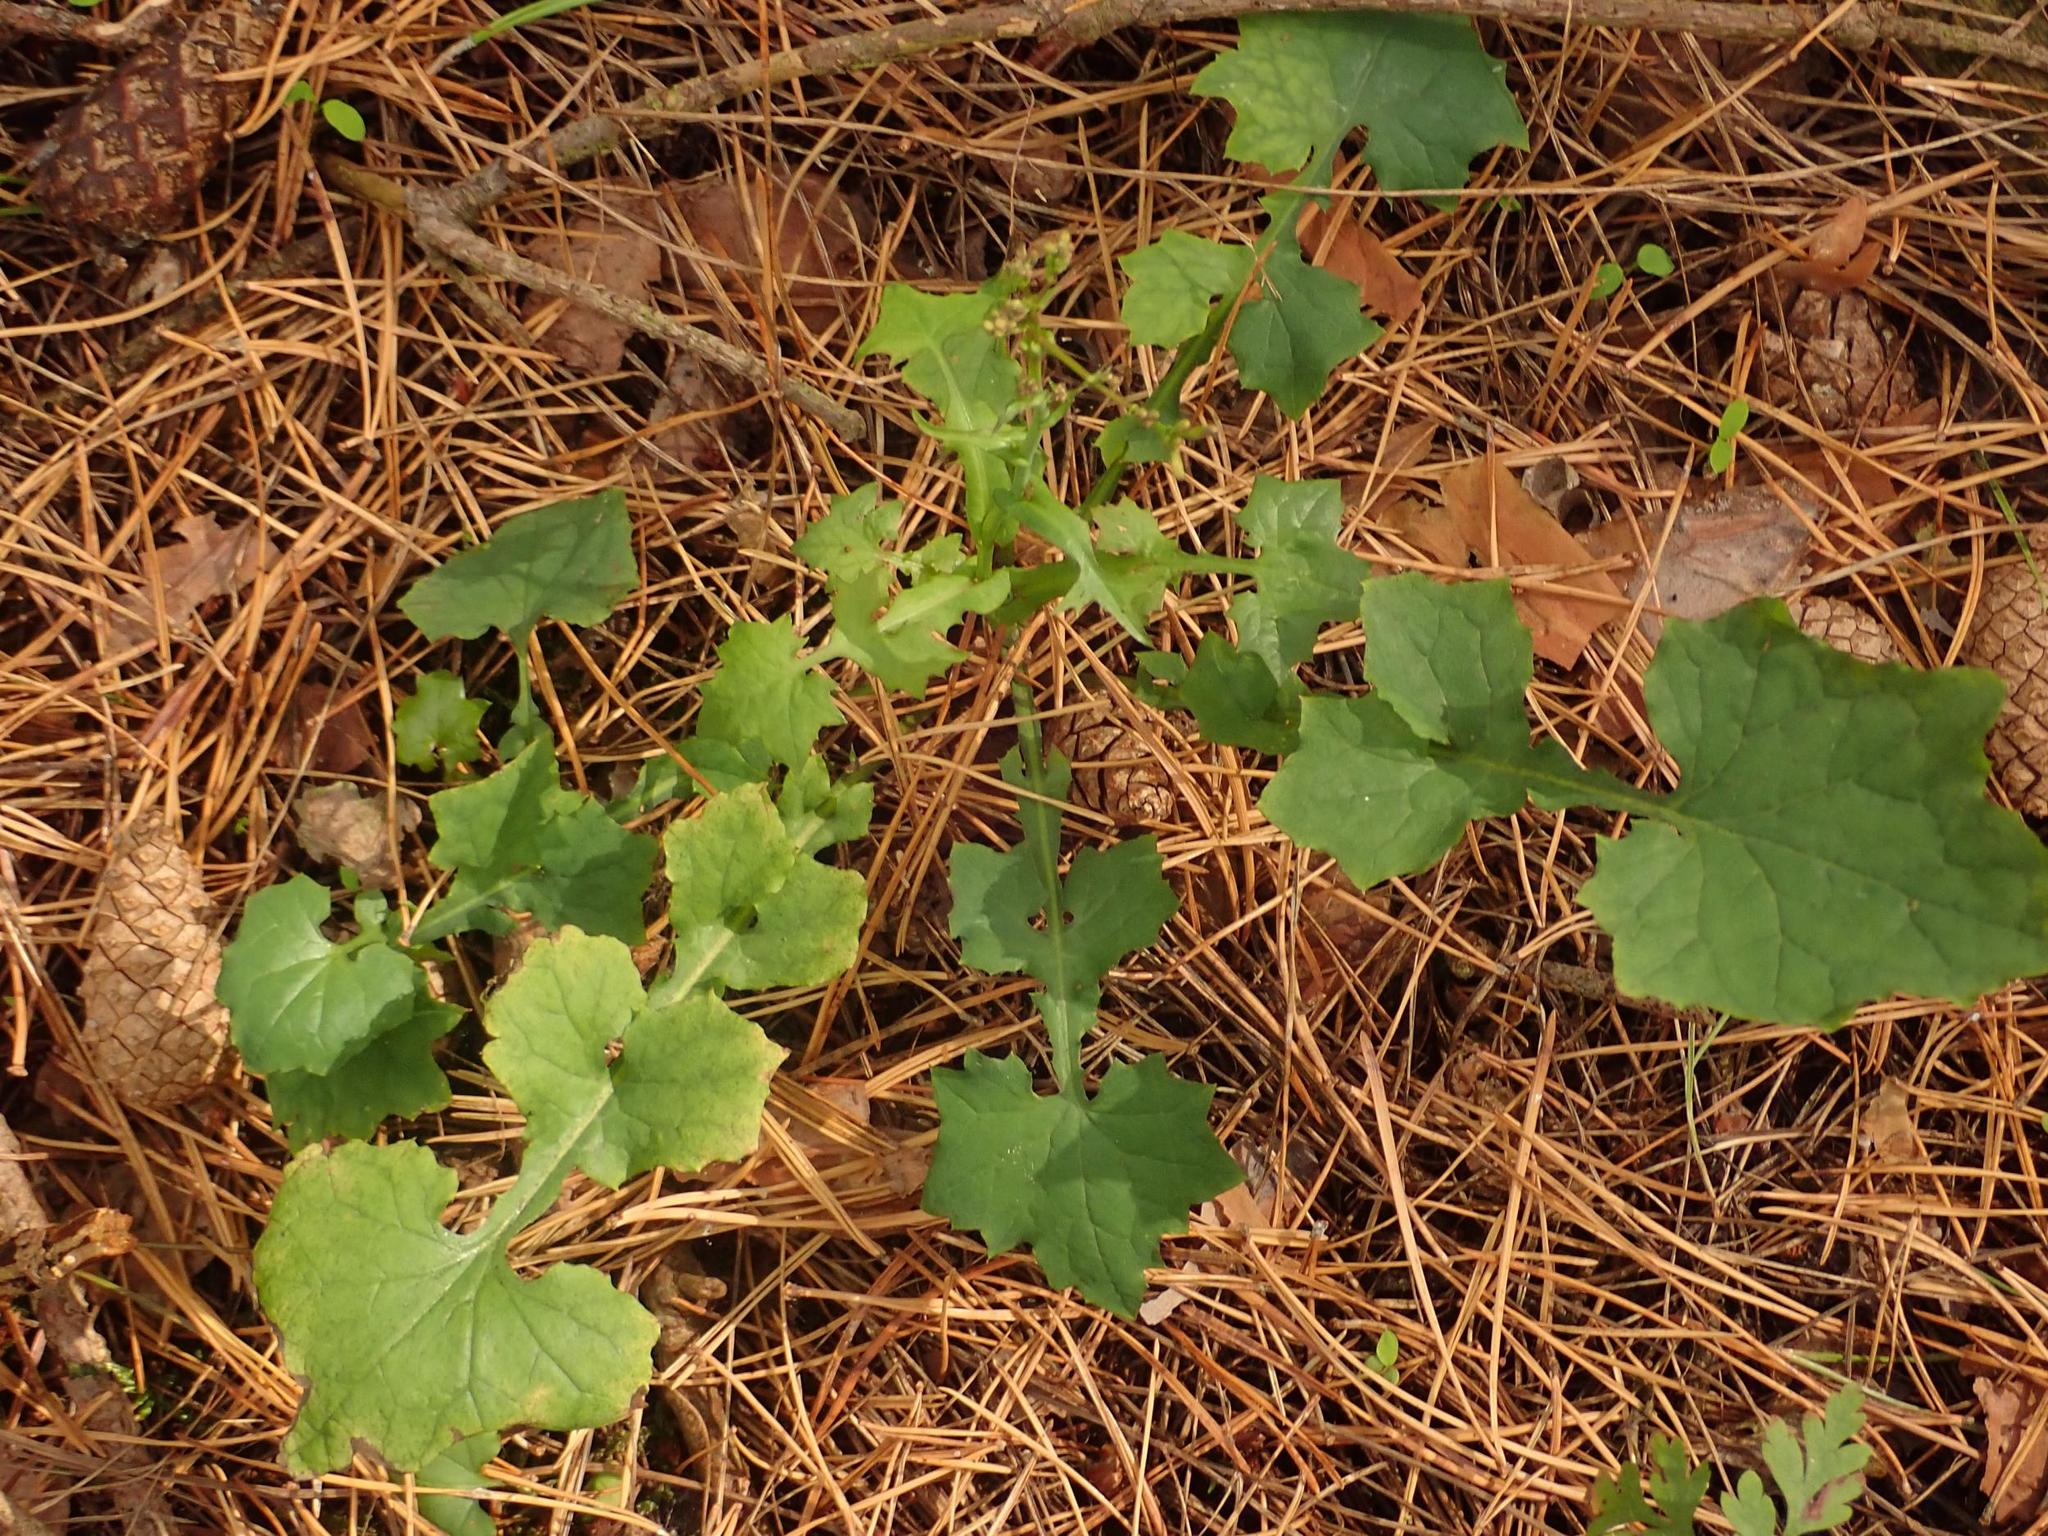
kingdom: Plantae
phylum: Tracheophyta
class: Magnoliopsida
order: Asterales
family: Asteraceae
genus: Mycelis
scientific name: Mycelis muralis
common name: Wall lettuce
